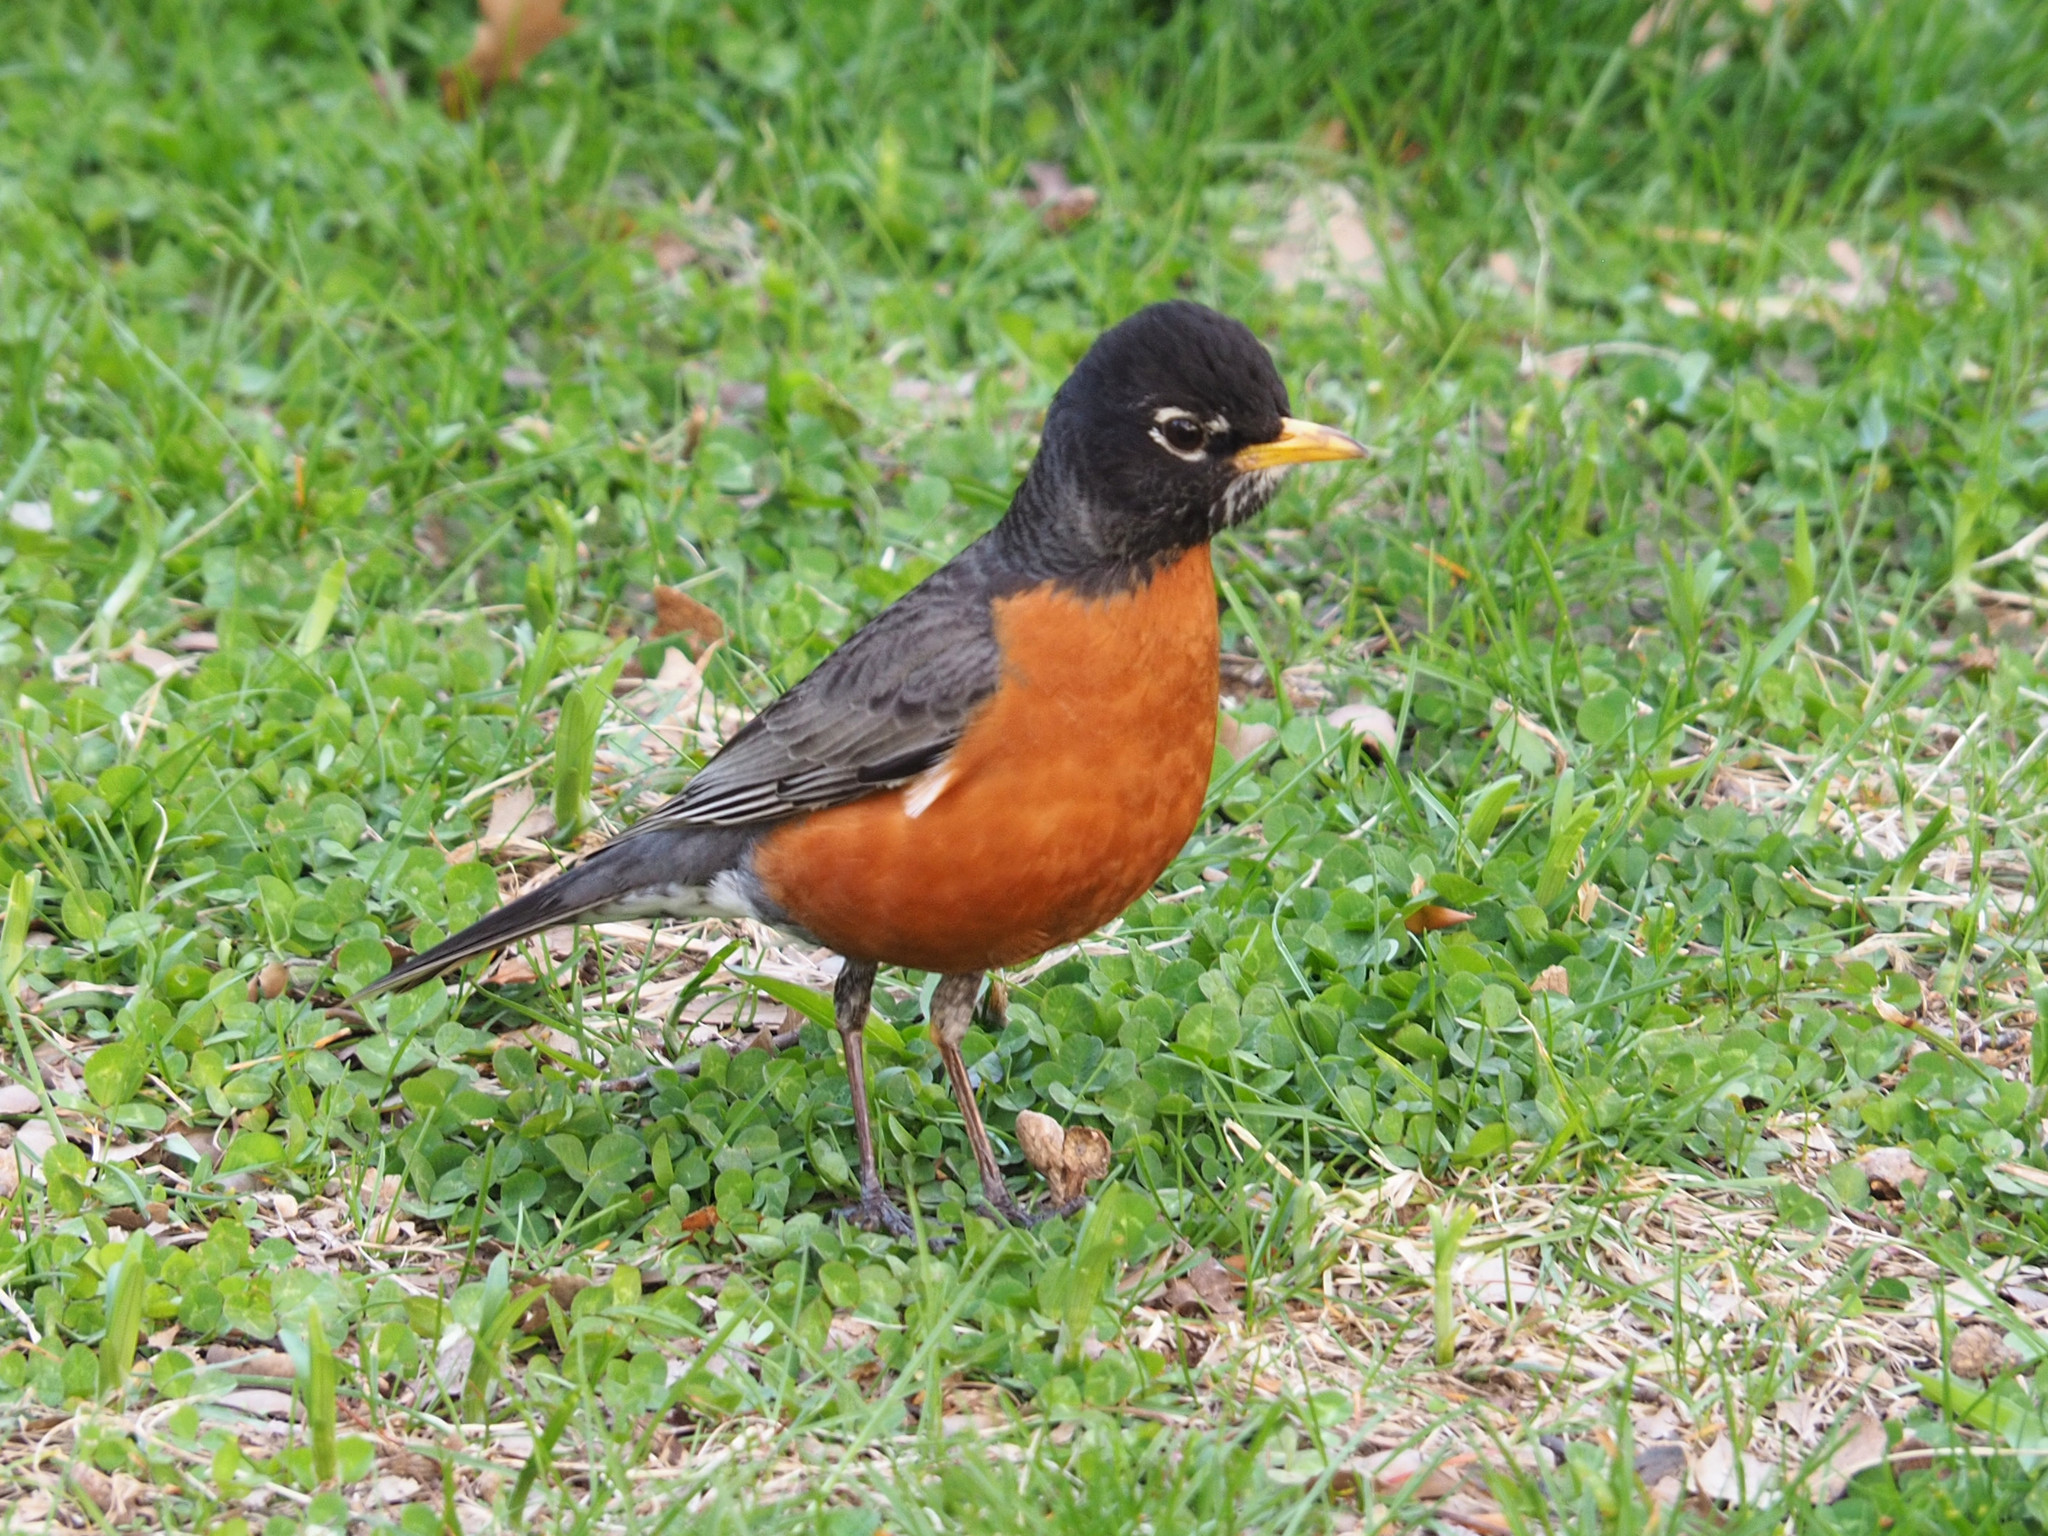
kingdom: Animalia
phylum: Chordata
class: Aves
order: Passeriformes
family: Turdidae
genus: Turdus
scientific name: Turdus migratorius
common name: American robin
